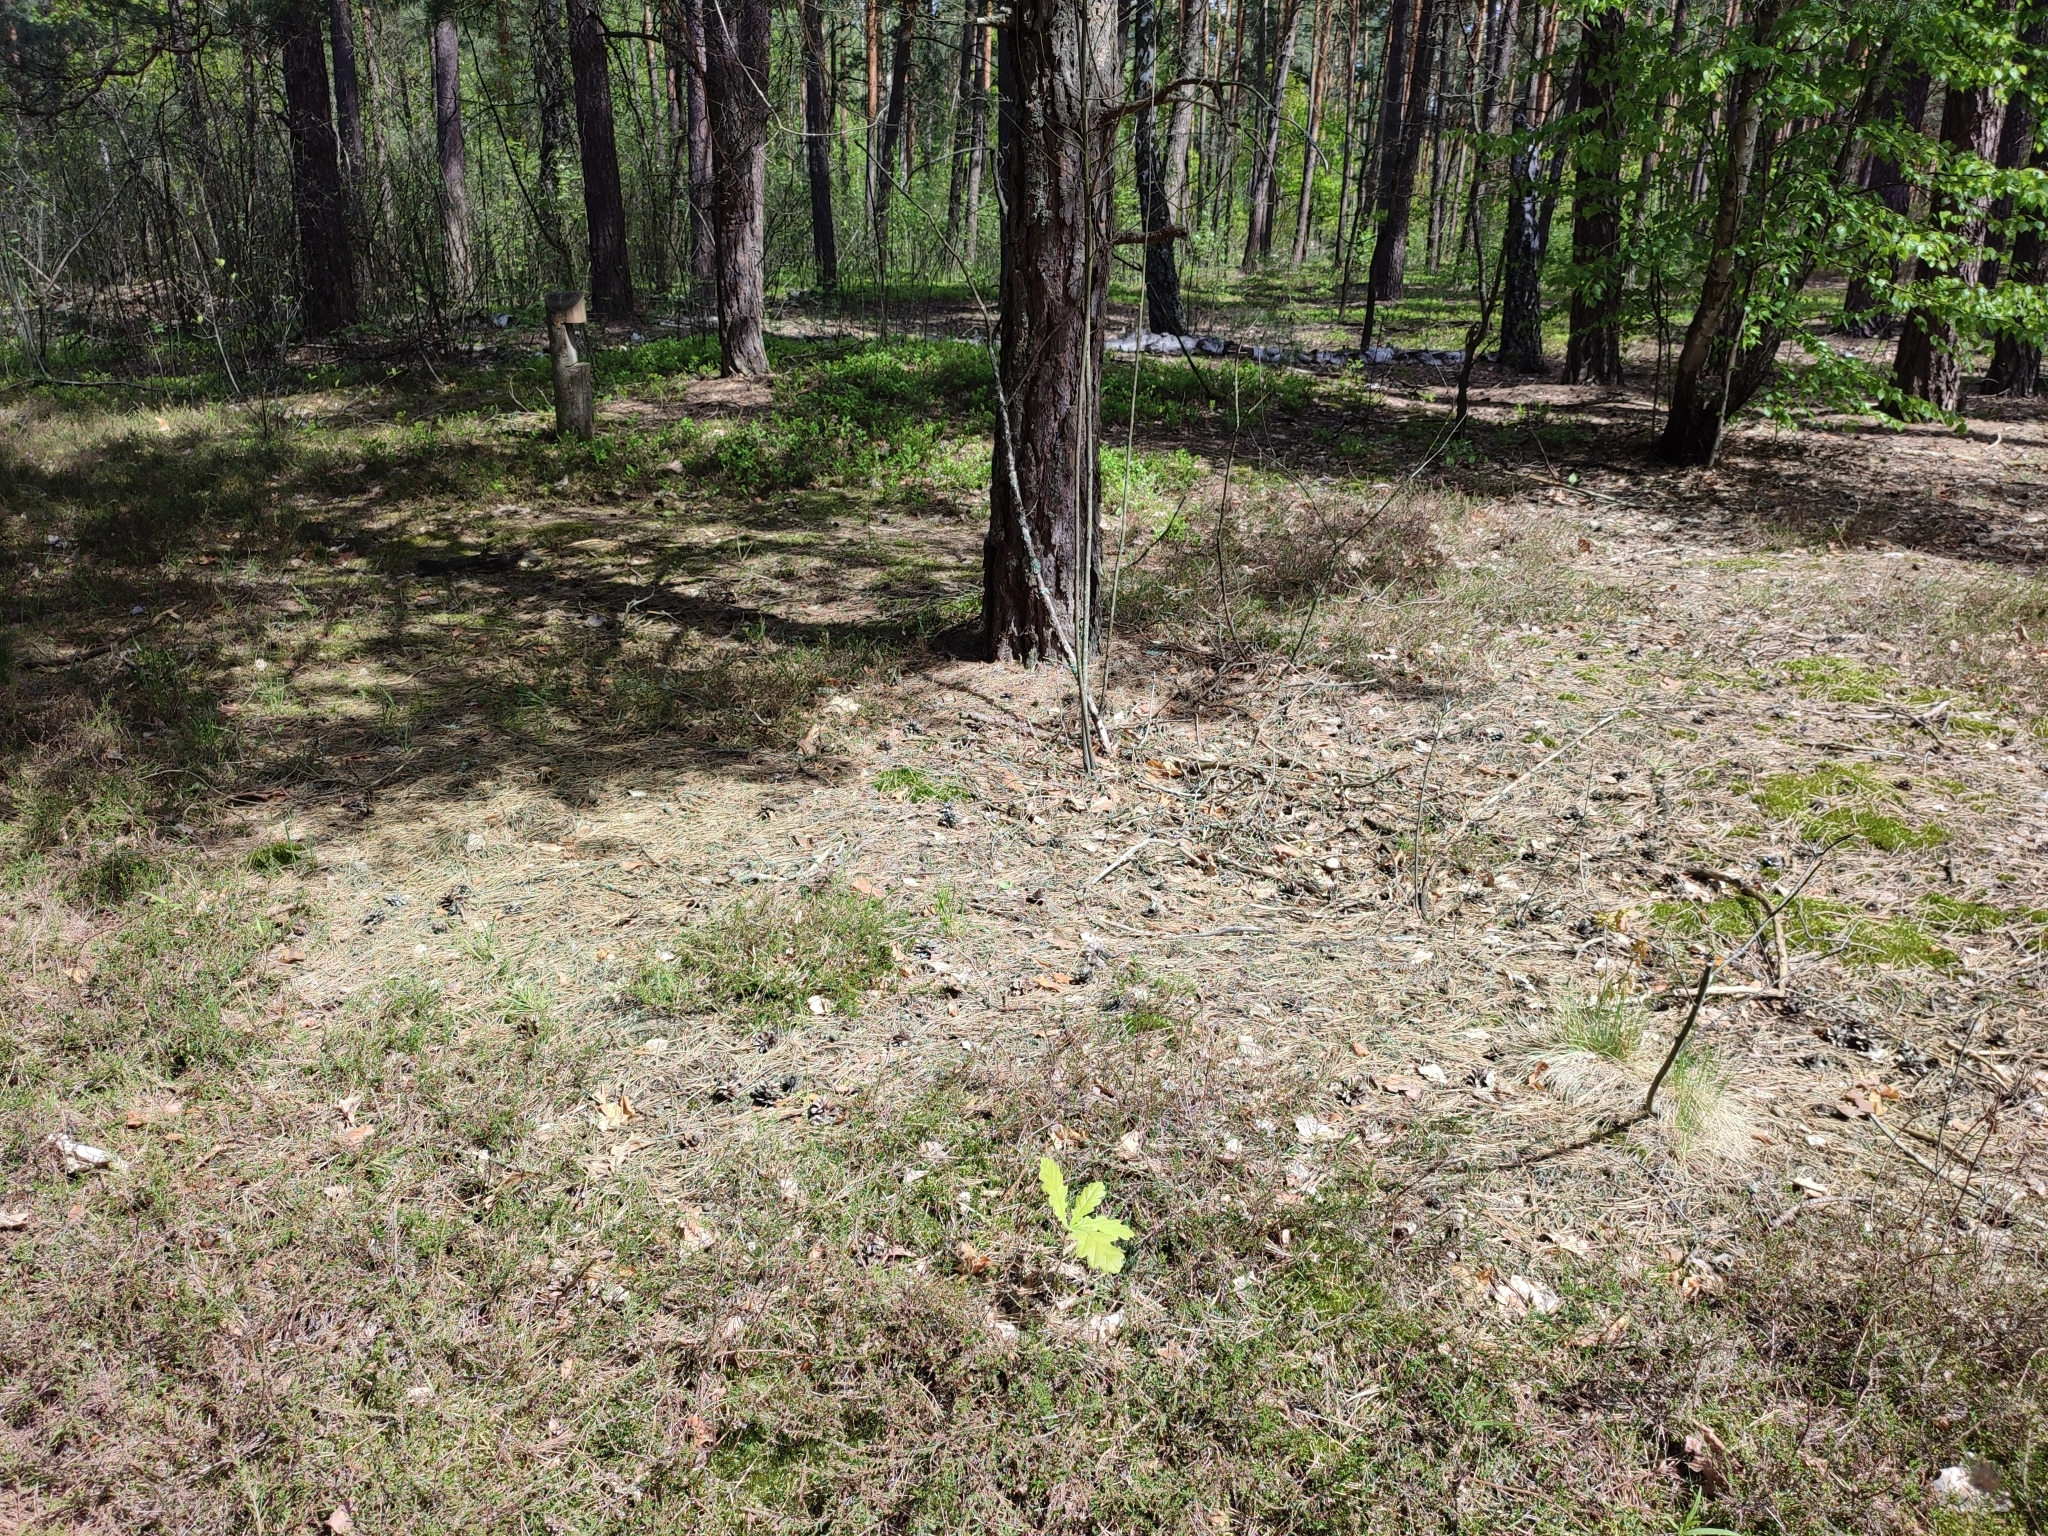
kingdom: Plantae
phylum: Tracheophyta
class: Magnoliopsida
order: Fagales
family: Fagaceae
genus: Quercus
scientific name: Quercus robur
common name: Pedunculate oak
